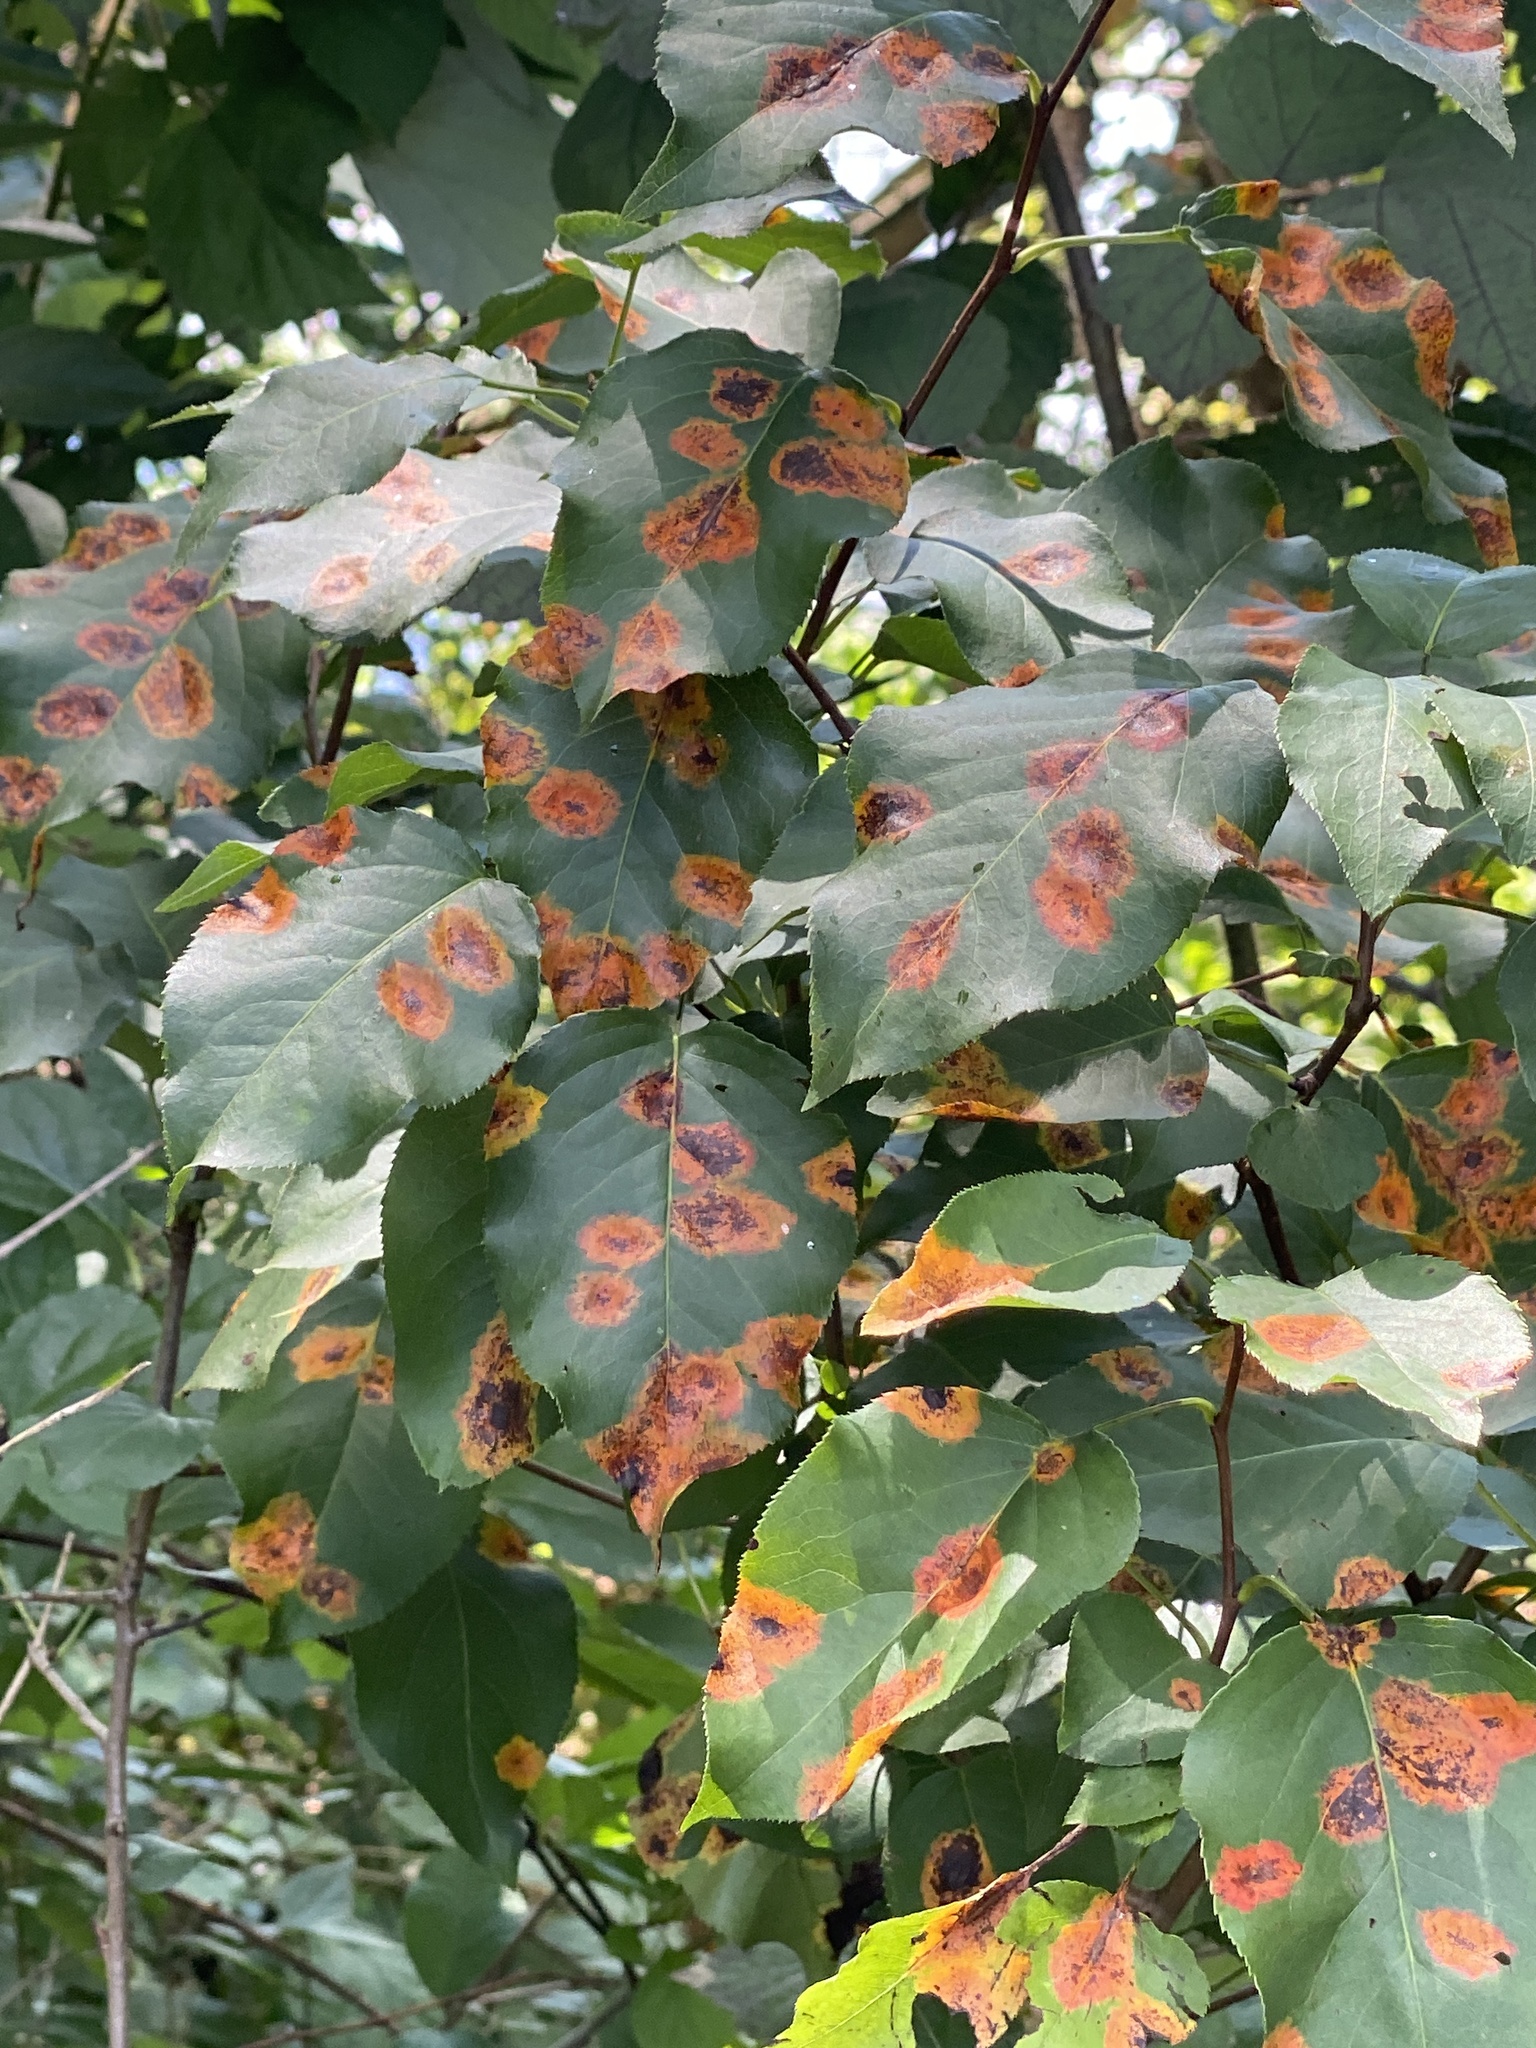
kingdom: Fungi
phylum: Basidiomycota
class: Pucciniomycetes
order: Pucciniales
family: Gymnosporangiaceae
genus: Gymnosporangium
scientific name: Gymnosporangium sabinae
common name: Pear trellis rust fungus
